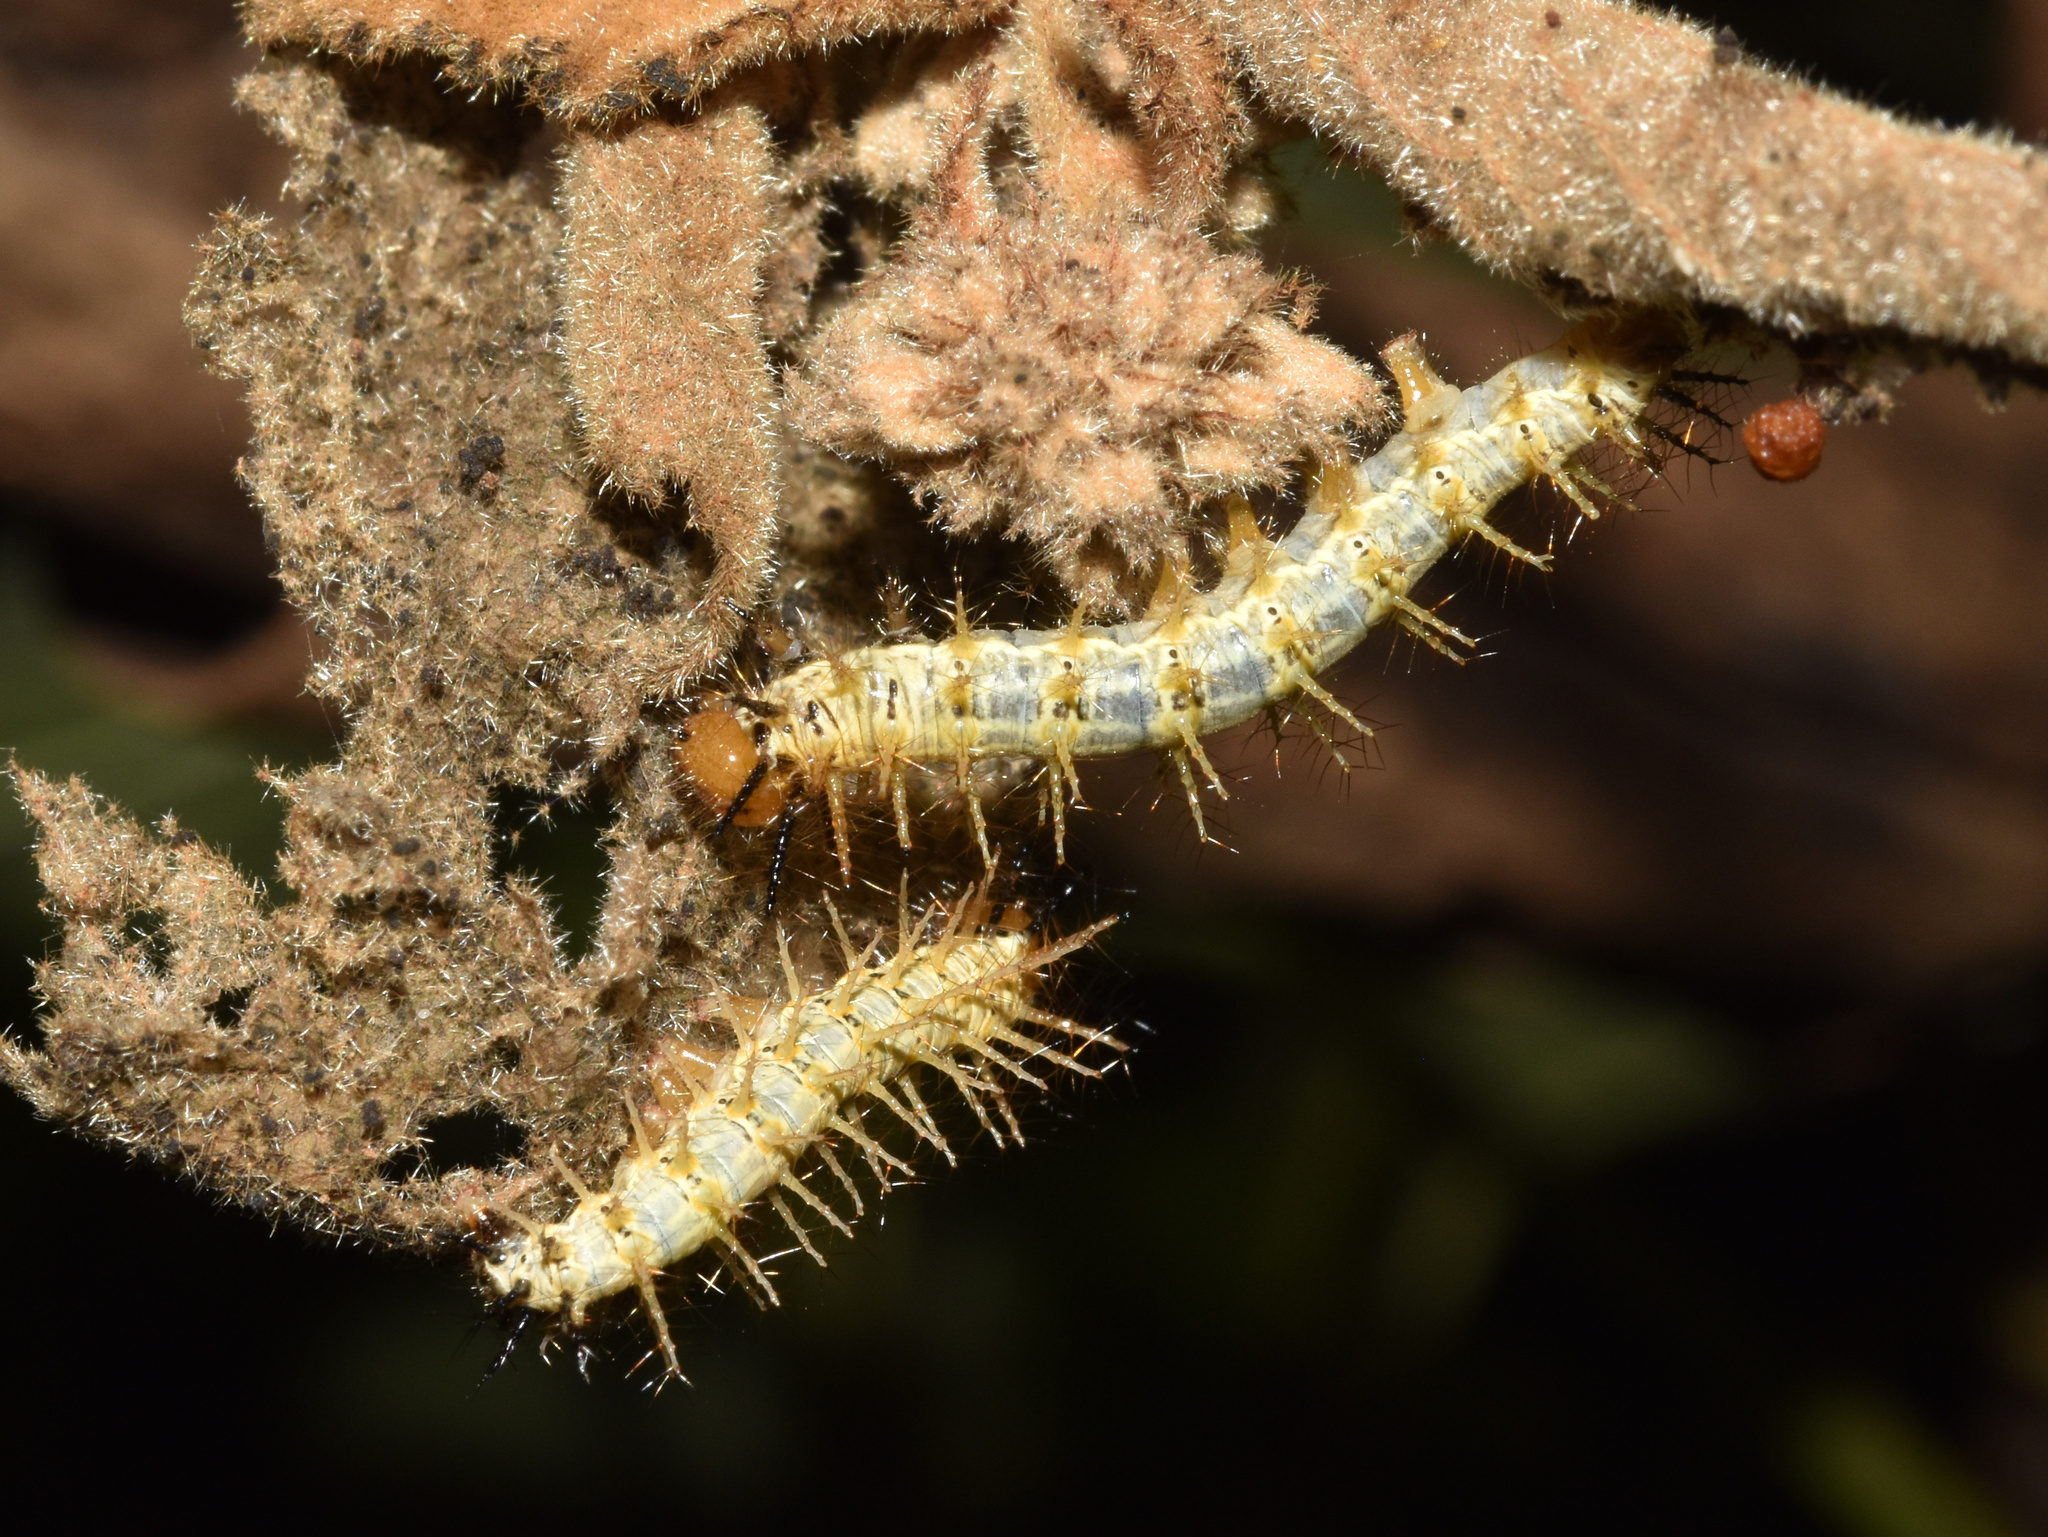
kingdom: Animalia
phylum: Arthropoda
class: Insecta
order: Lepidoptera
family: Nymphalidae
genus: Acraea
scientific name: Acraea Telchinia serena
